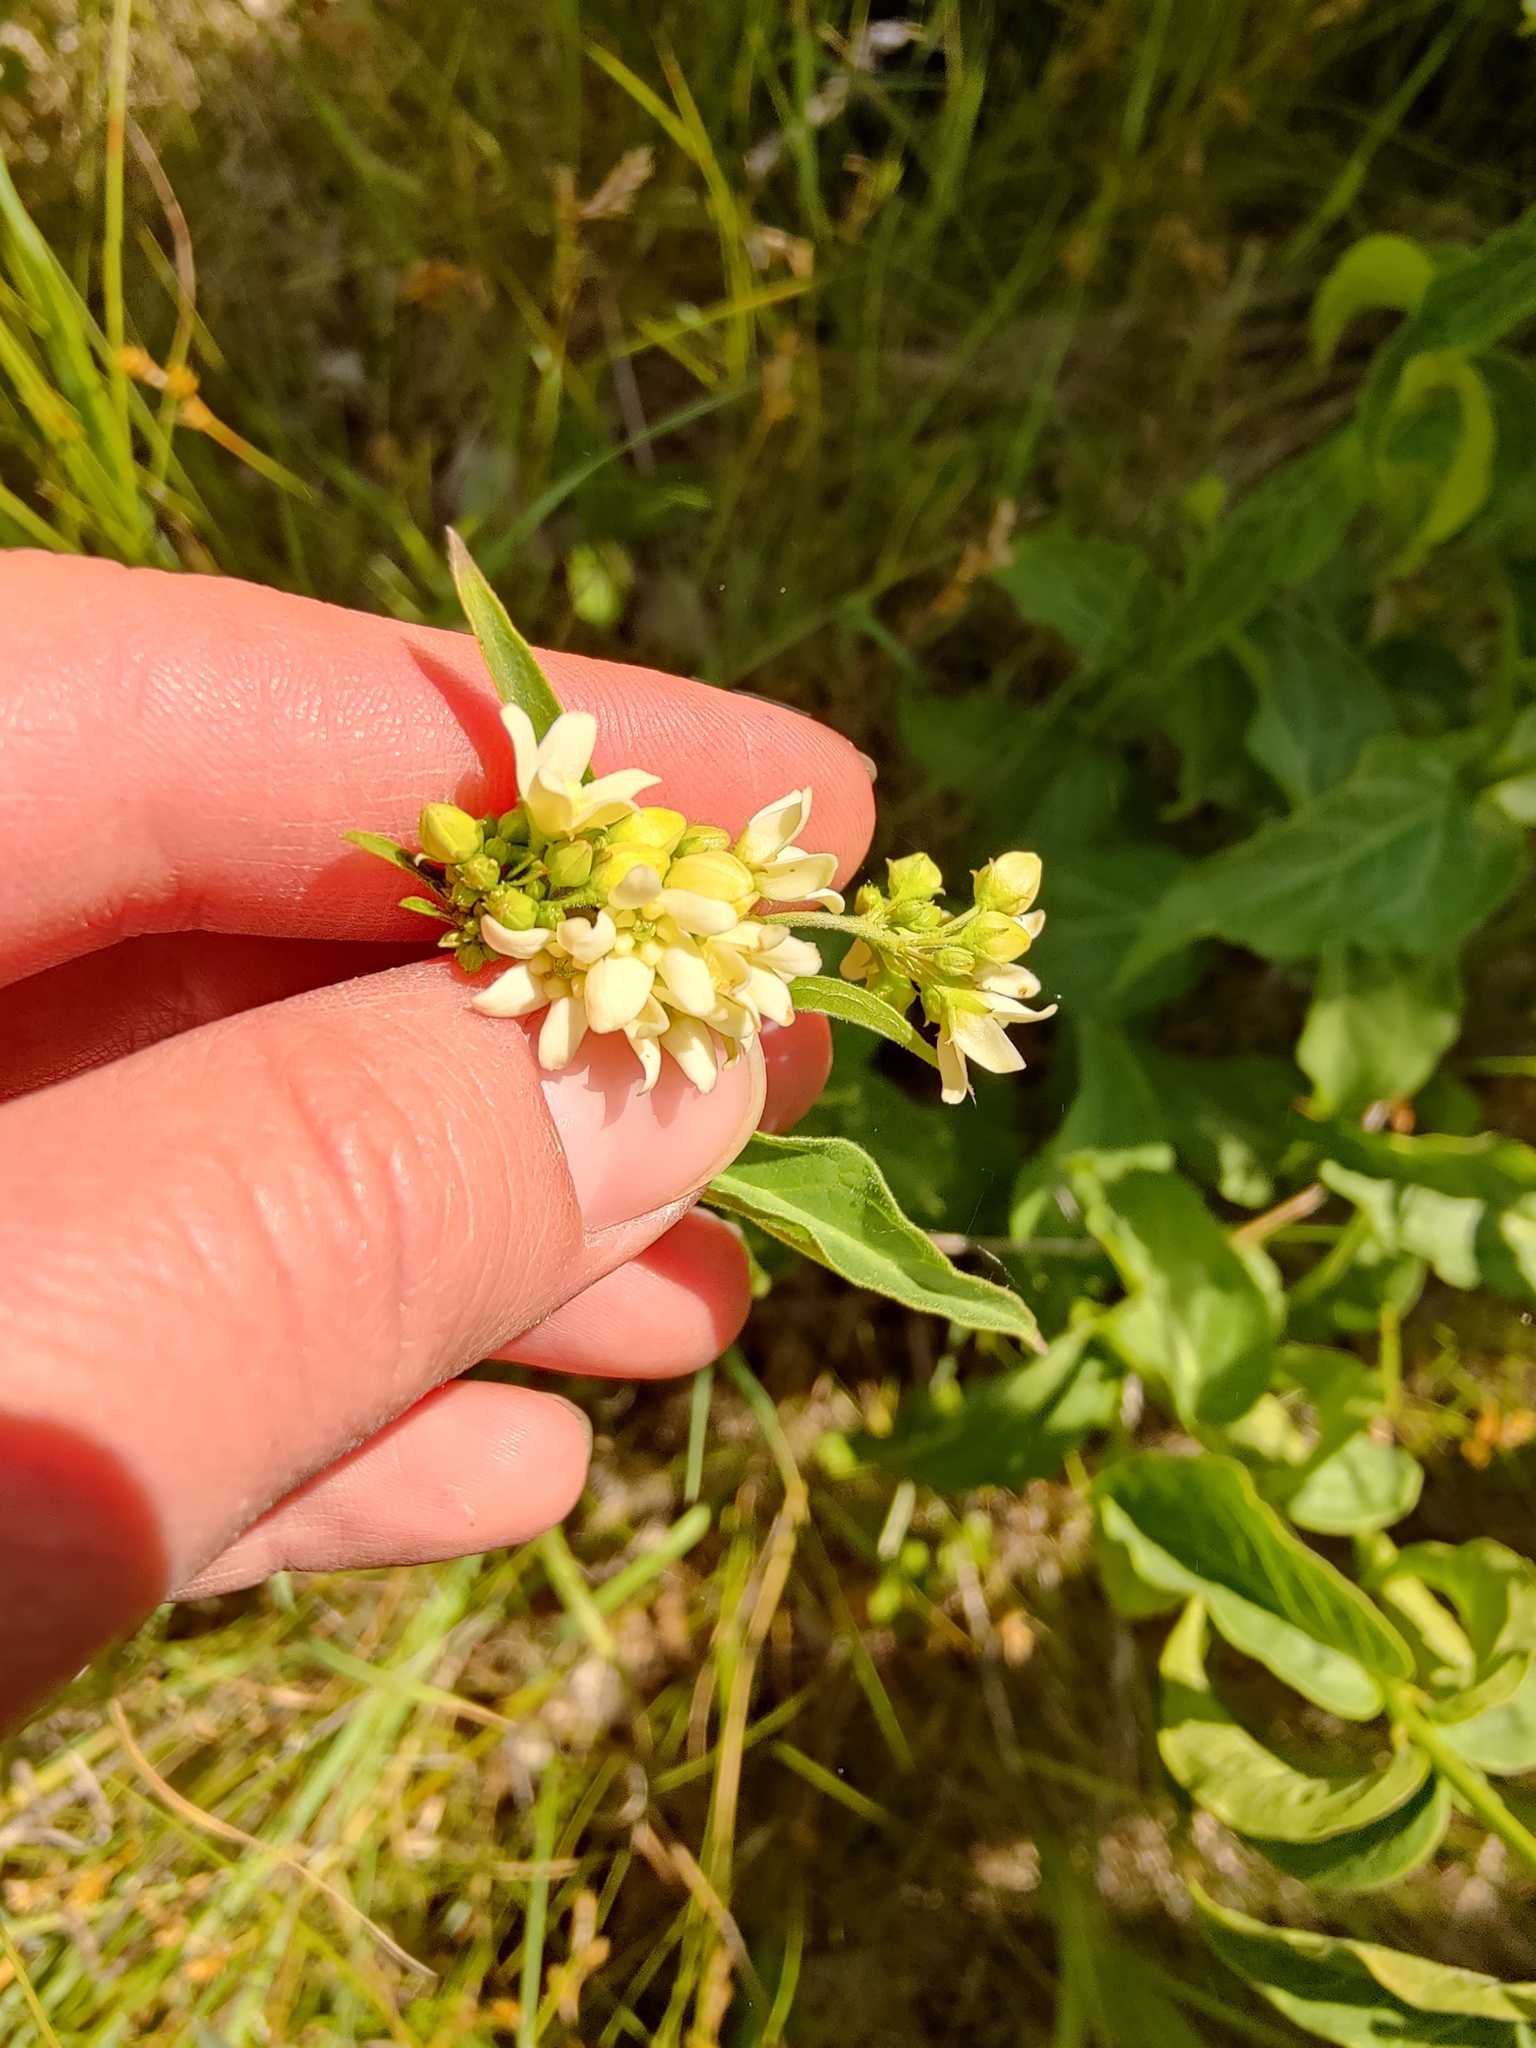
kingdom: Plantae
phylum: Tracheophyta
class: Magnoliopsida
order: Gentianales
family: Apocynaceae
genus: Vincetoxicum
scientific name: Vincetoxicum hirundinaria
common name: White swallowwort
